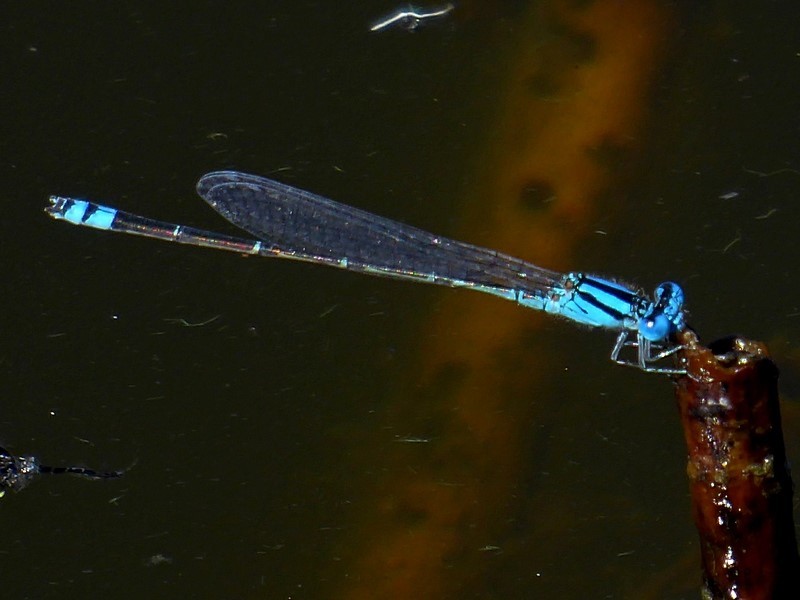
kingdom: Animalia
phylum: Arthropoda
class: Insecta
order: Odonata
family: Coenagrionidae
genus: Pseudagrion
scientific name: Pseudagrion microcephalum
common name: Blue riverdamsel
